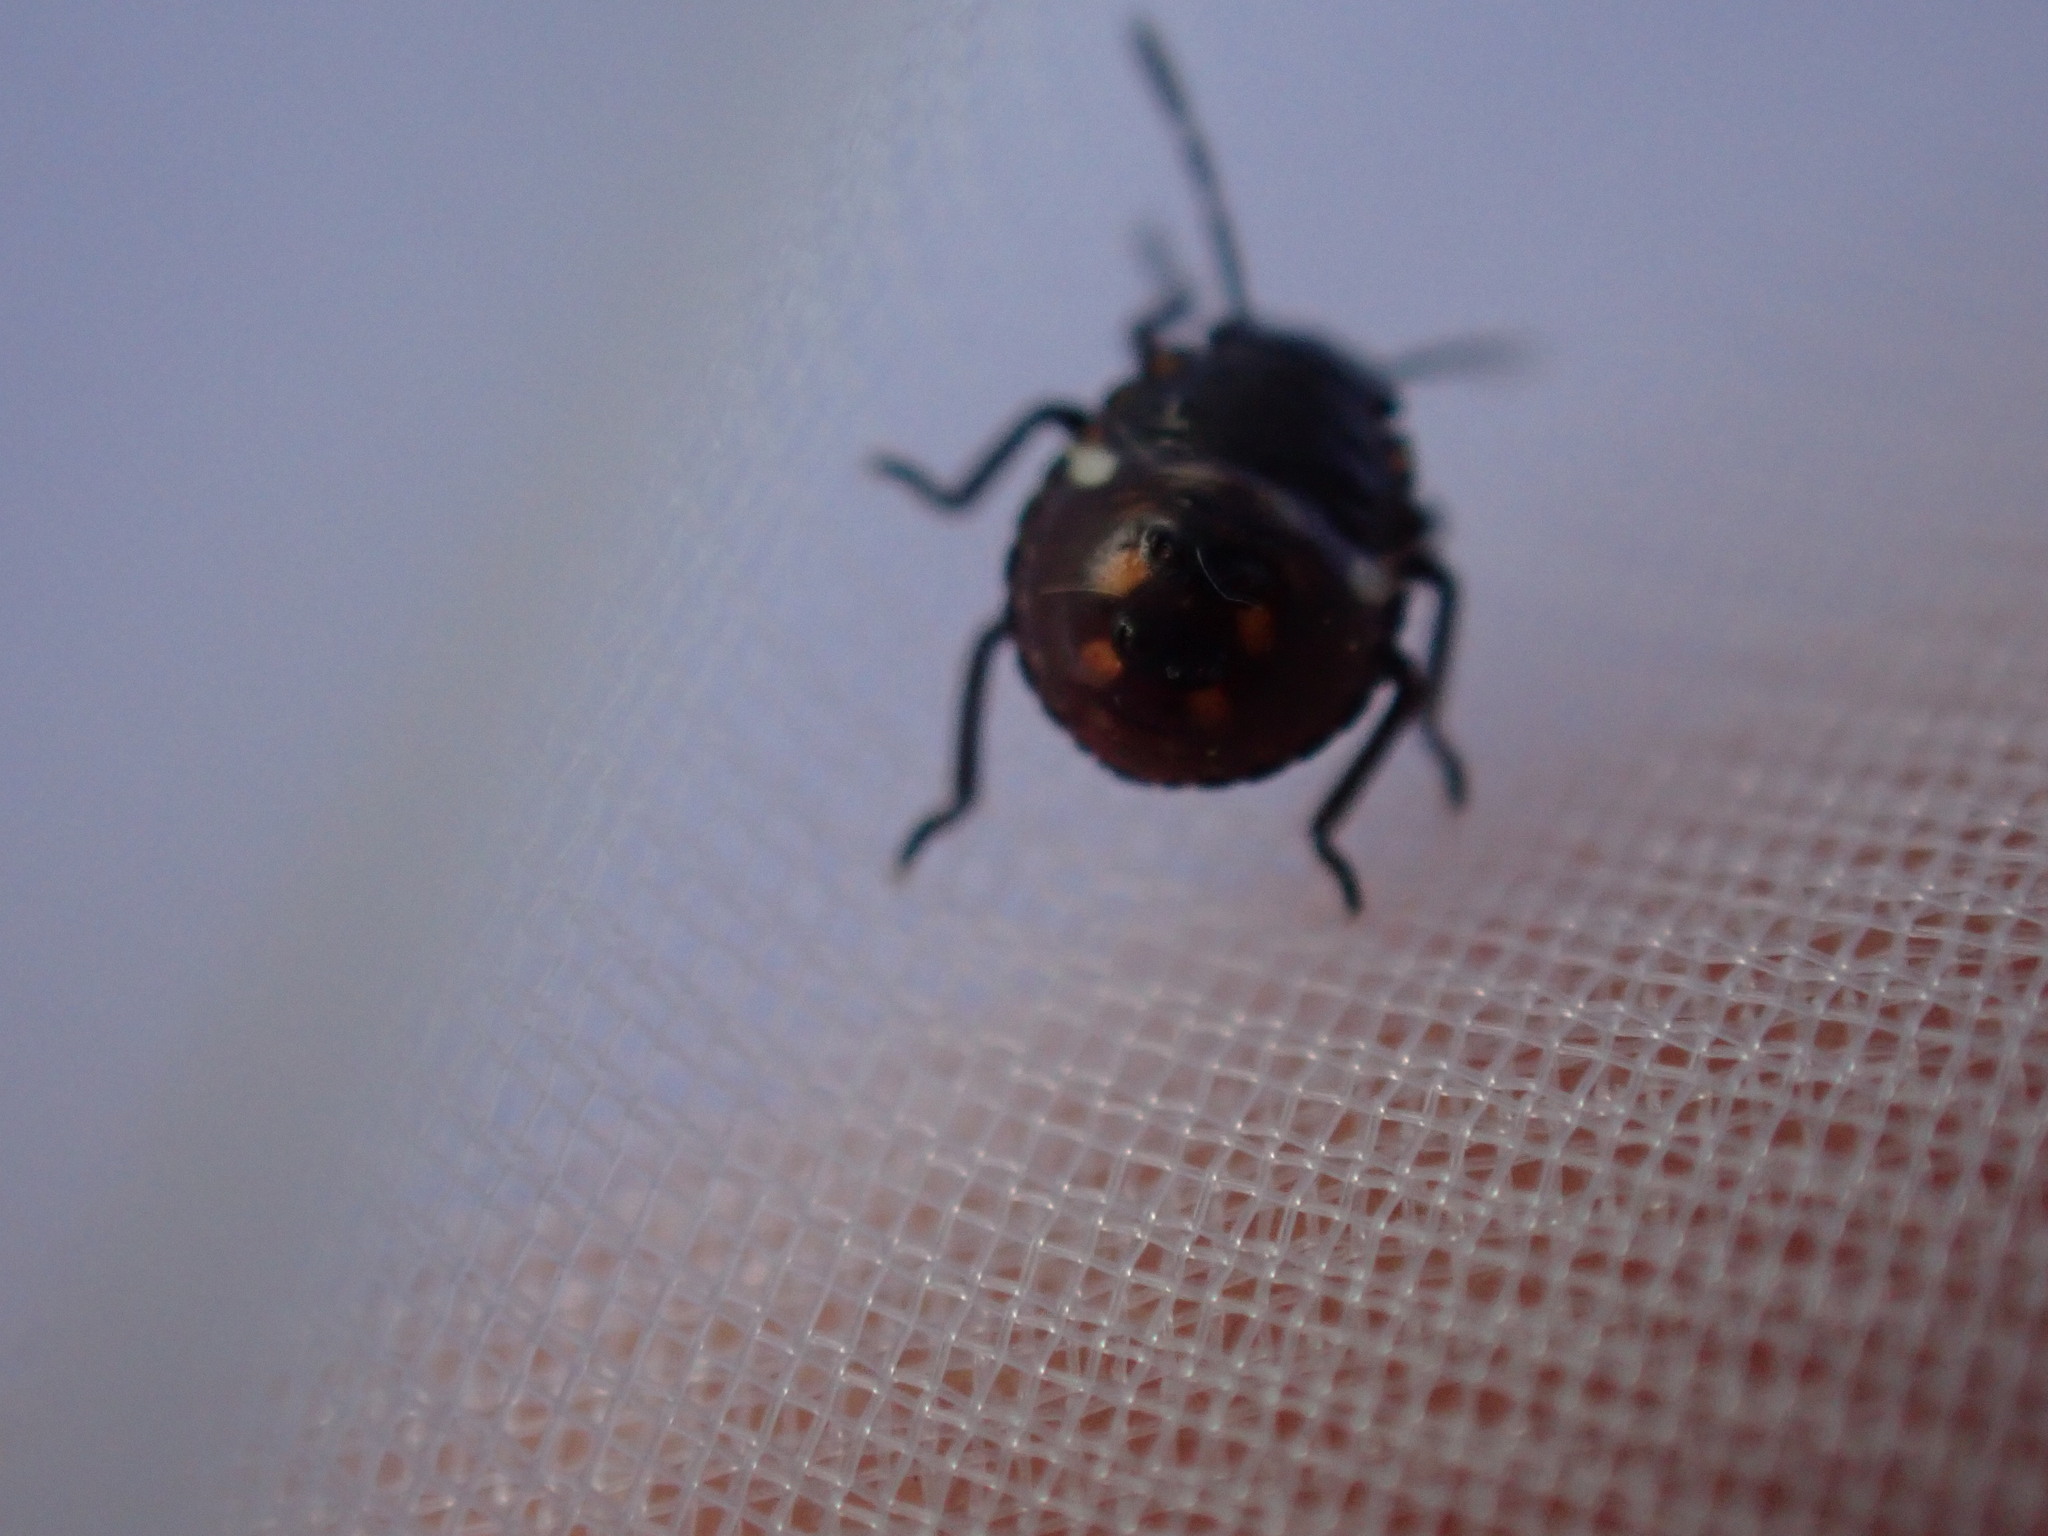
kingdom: Animalia
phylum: Arthropoda
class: Insecta
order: Hemiptera
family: Pentatomidae
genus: Nezara
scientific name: Nezara viridula
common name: Southern green stink bug
